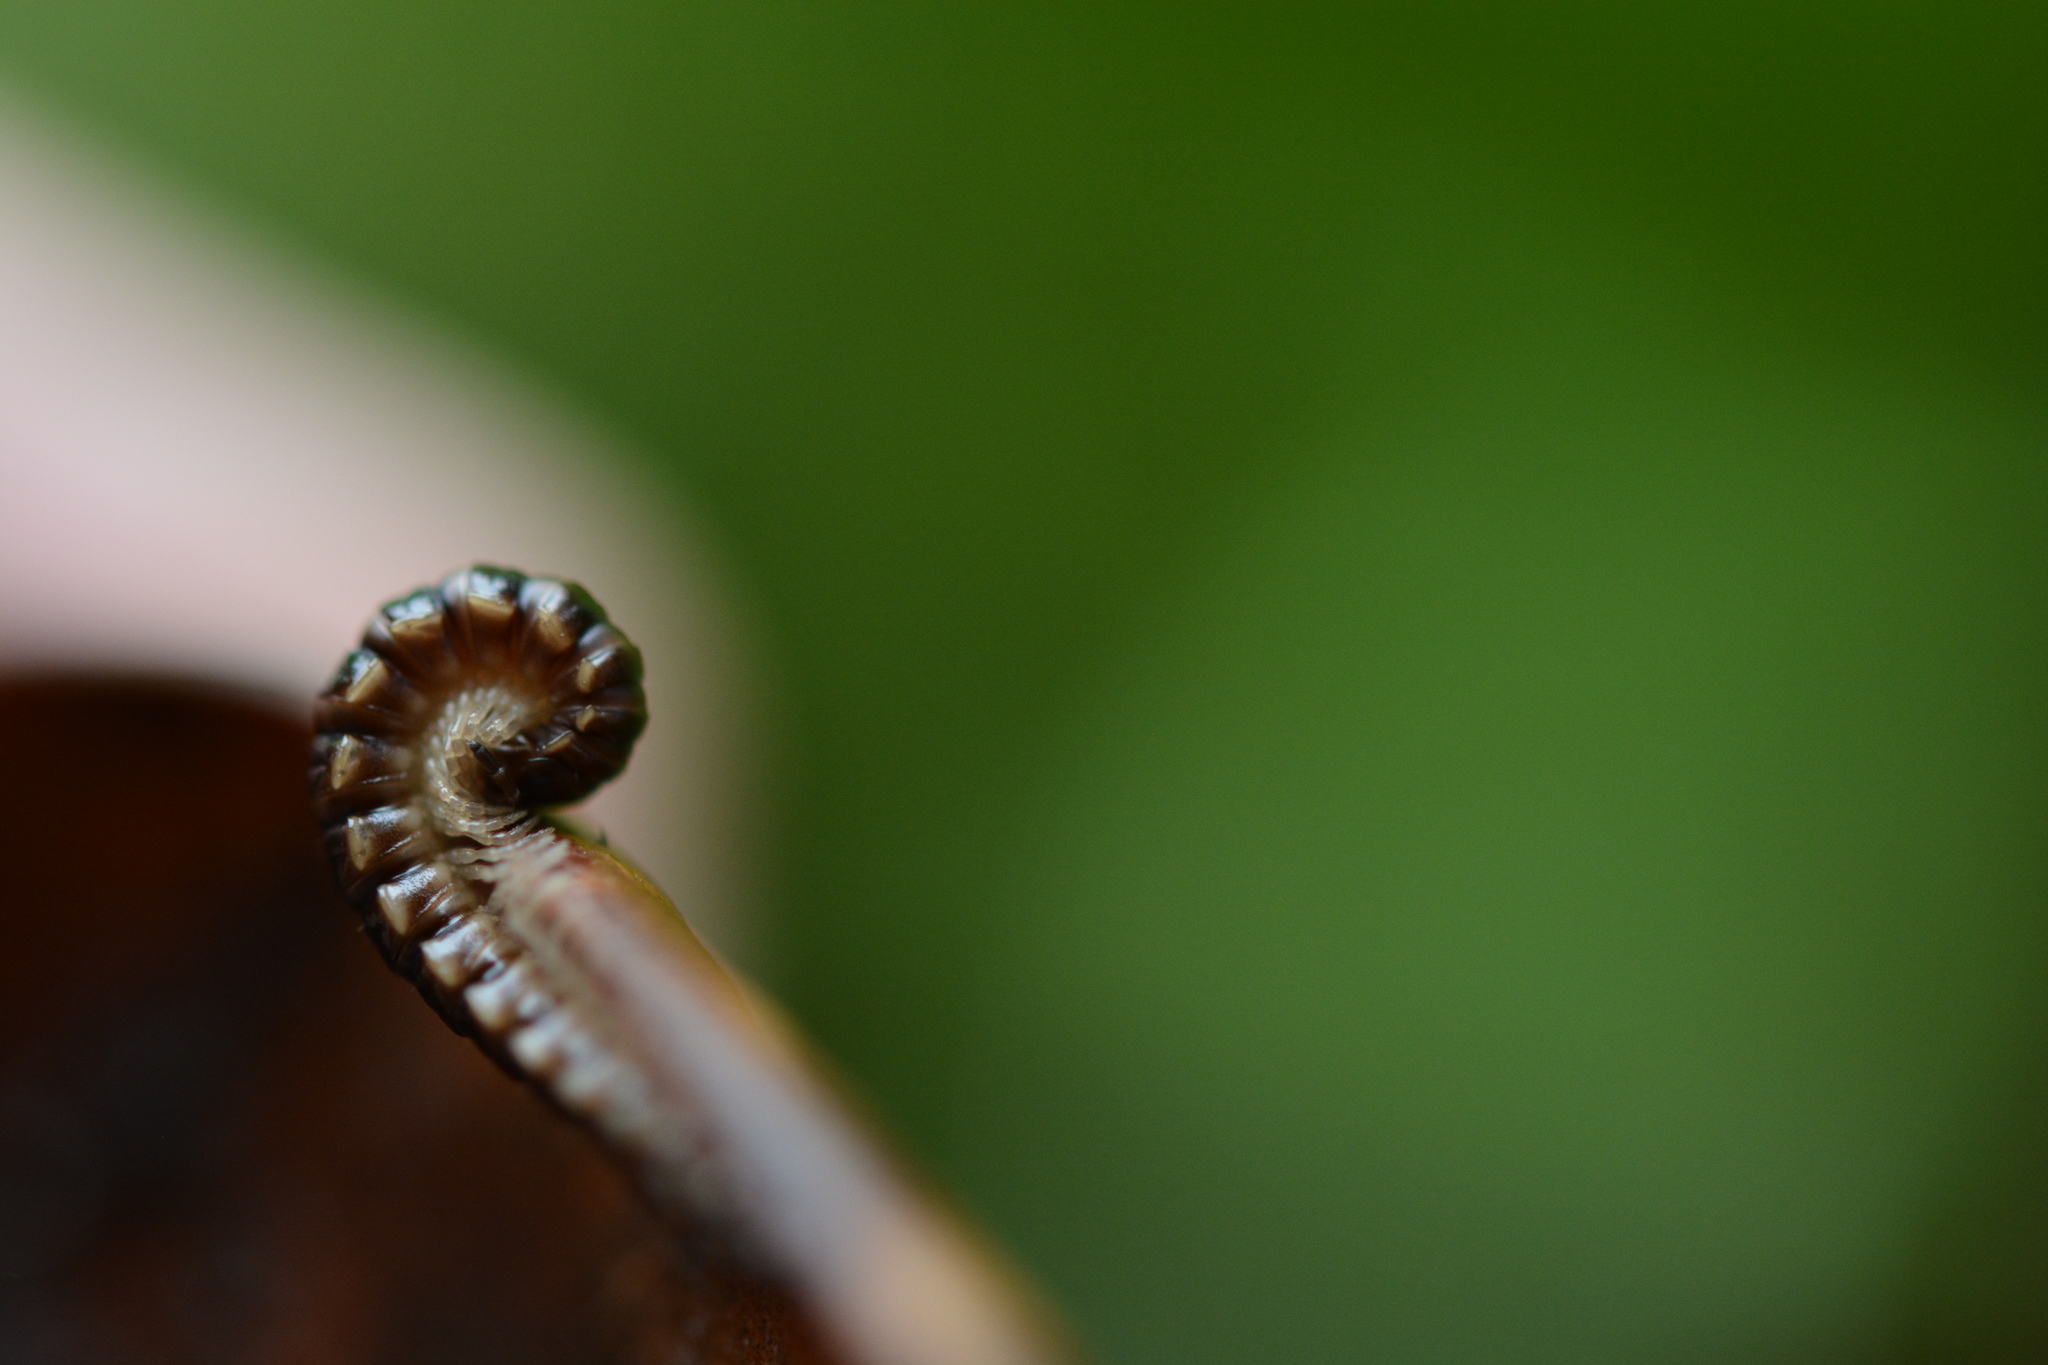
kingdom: Animalia
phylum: Arthropoda
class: Diplopoda
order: Polydesmida
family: Paradoxosomatidae
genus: Oxidus
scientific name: Oxidus gracilis
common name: Greenhouse millipede
